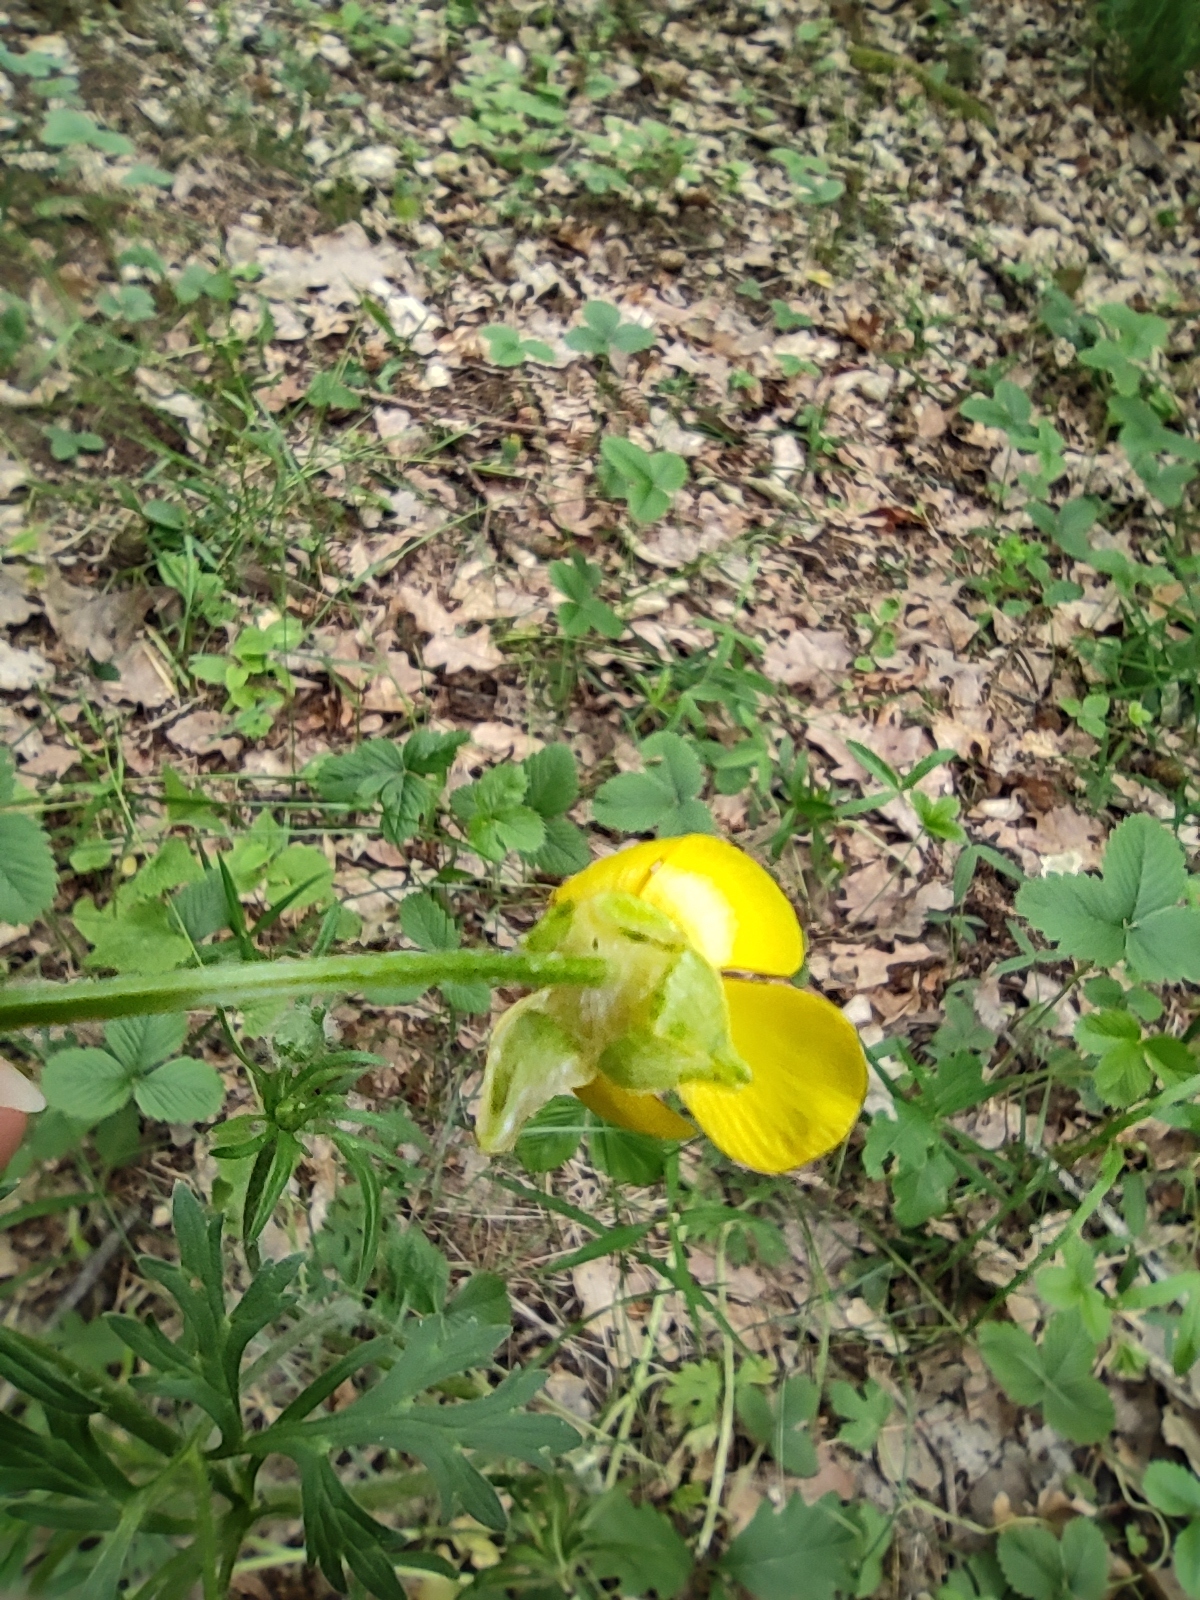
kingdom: Plantae
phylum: Tracheophyta
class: Magnoliopsida
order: Ranunculales
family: Ranunculaceae
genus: Ranunculus
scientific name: Ranunculus bulbosus
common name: Bulbous buttercup
